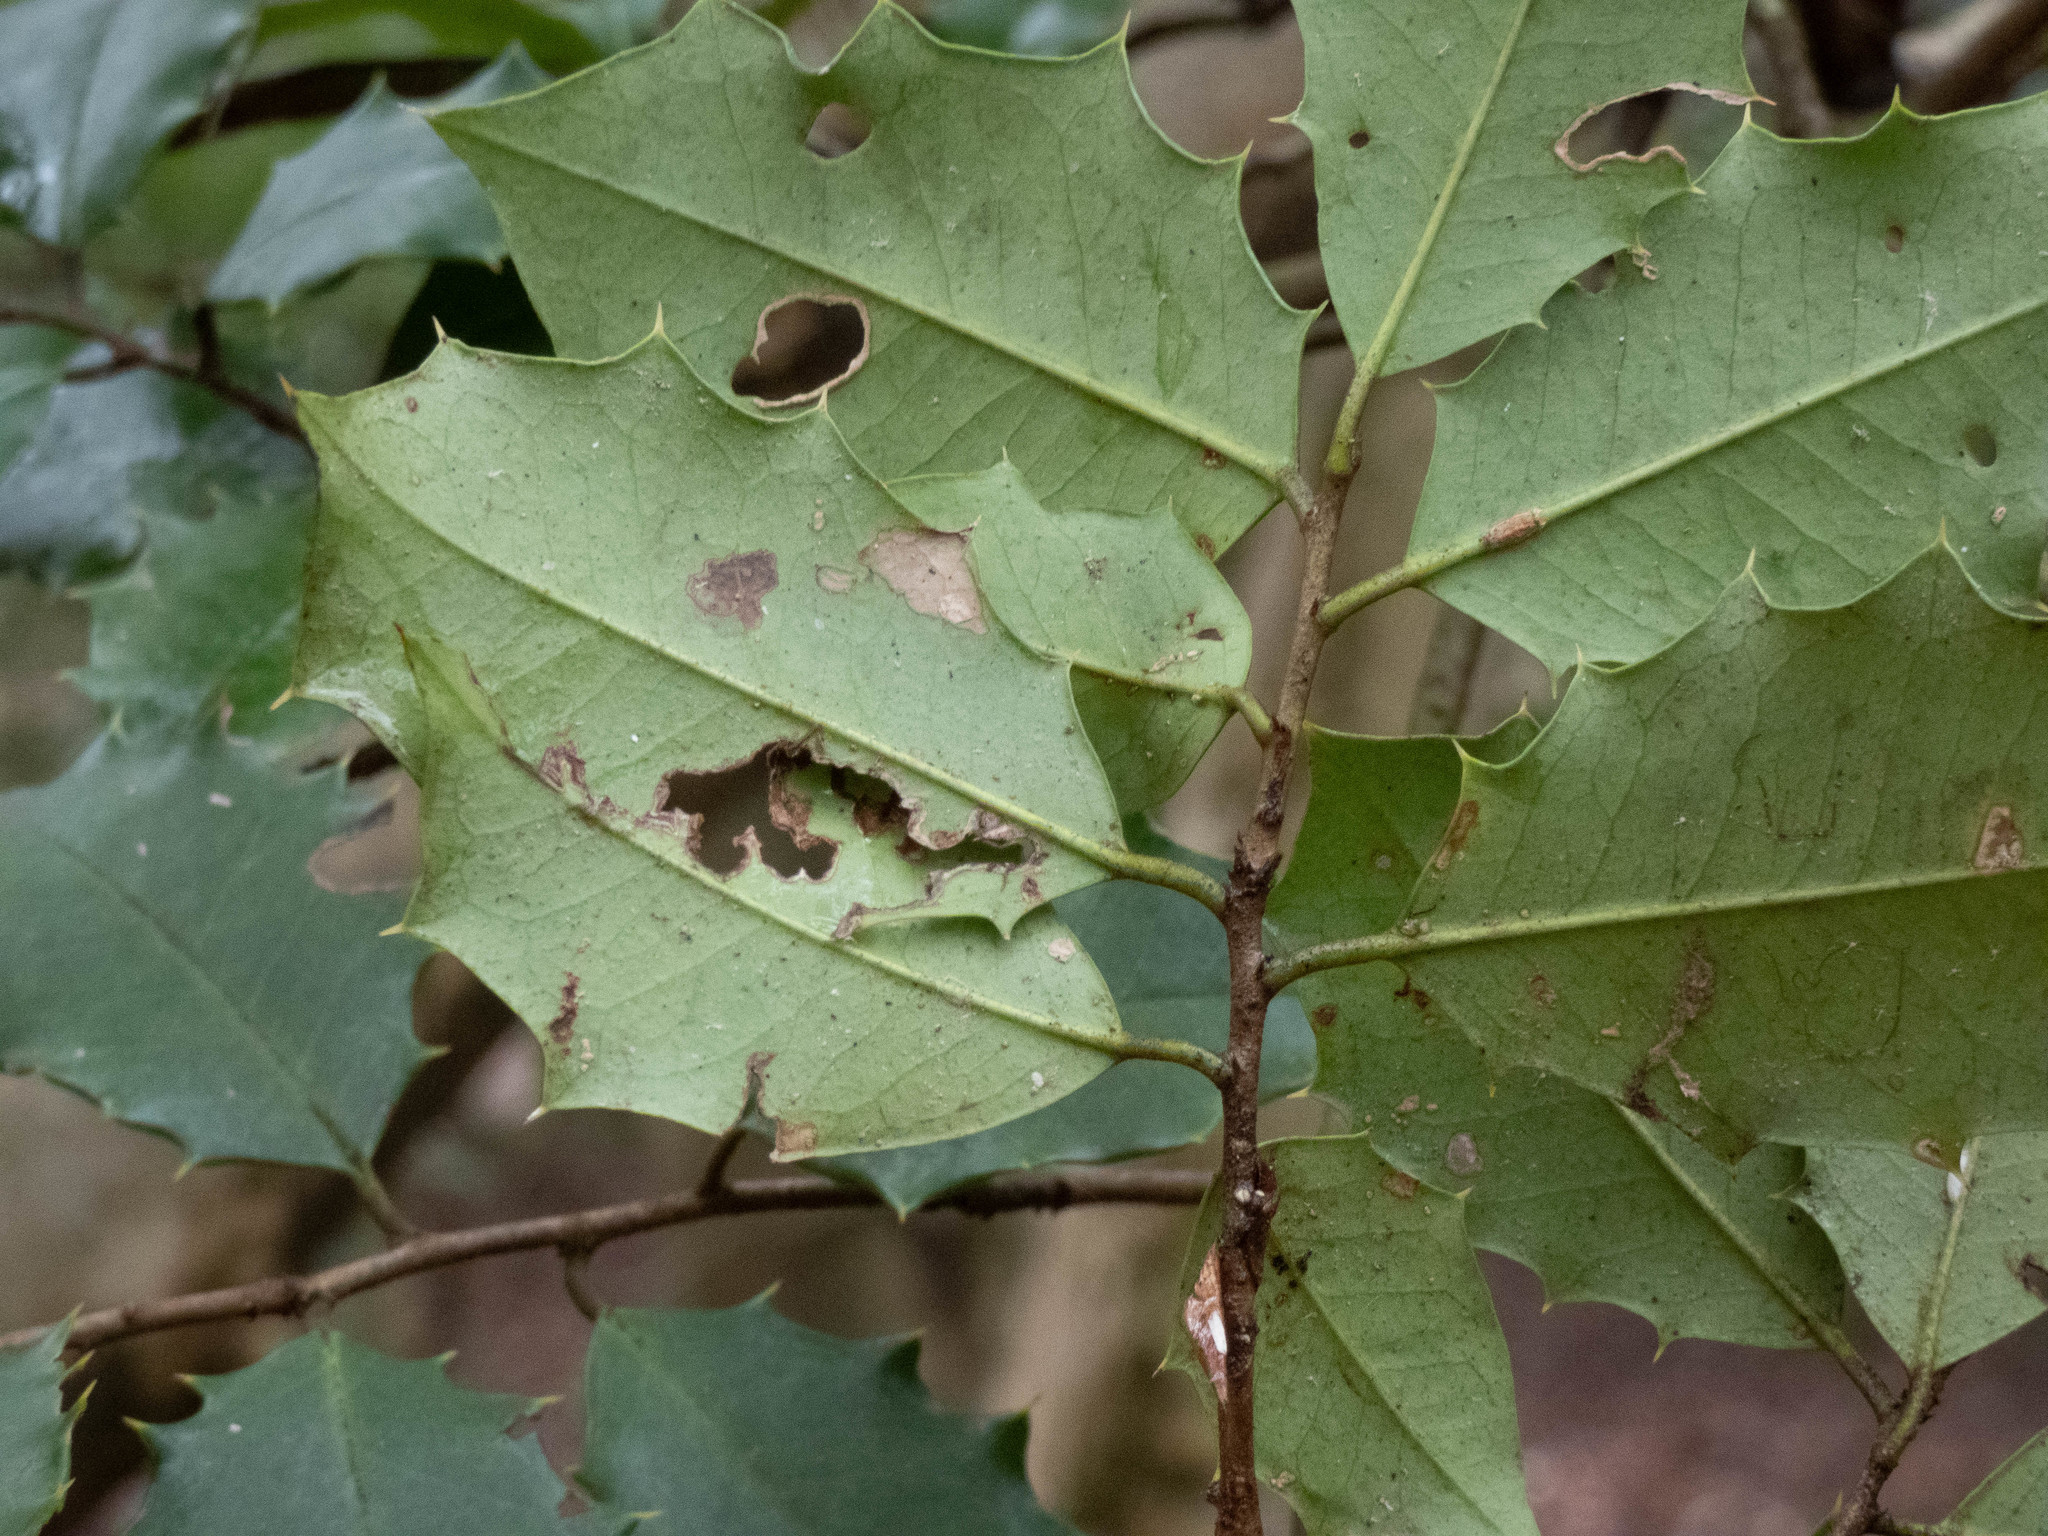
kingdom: Plantae
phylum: Tracheophyta
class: Magnoliopsida
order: Aquifoliales
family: Aquifoliaceae
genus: Ilex
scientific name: Ilex opaca
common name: American holly
